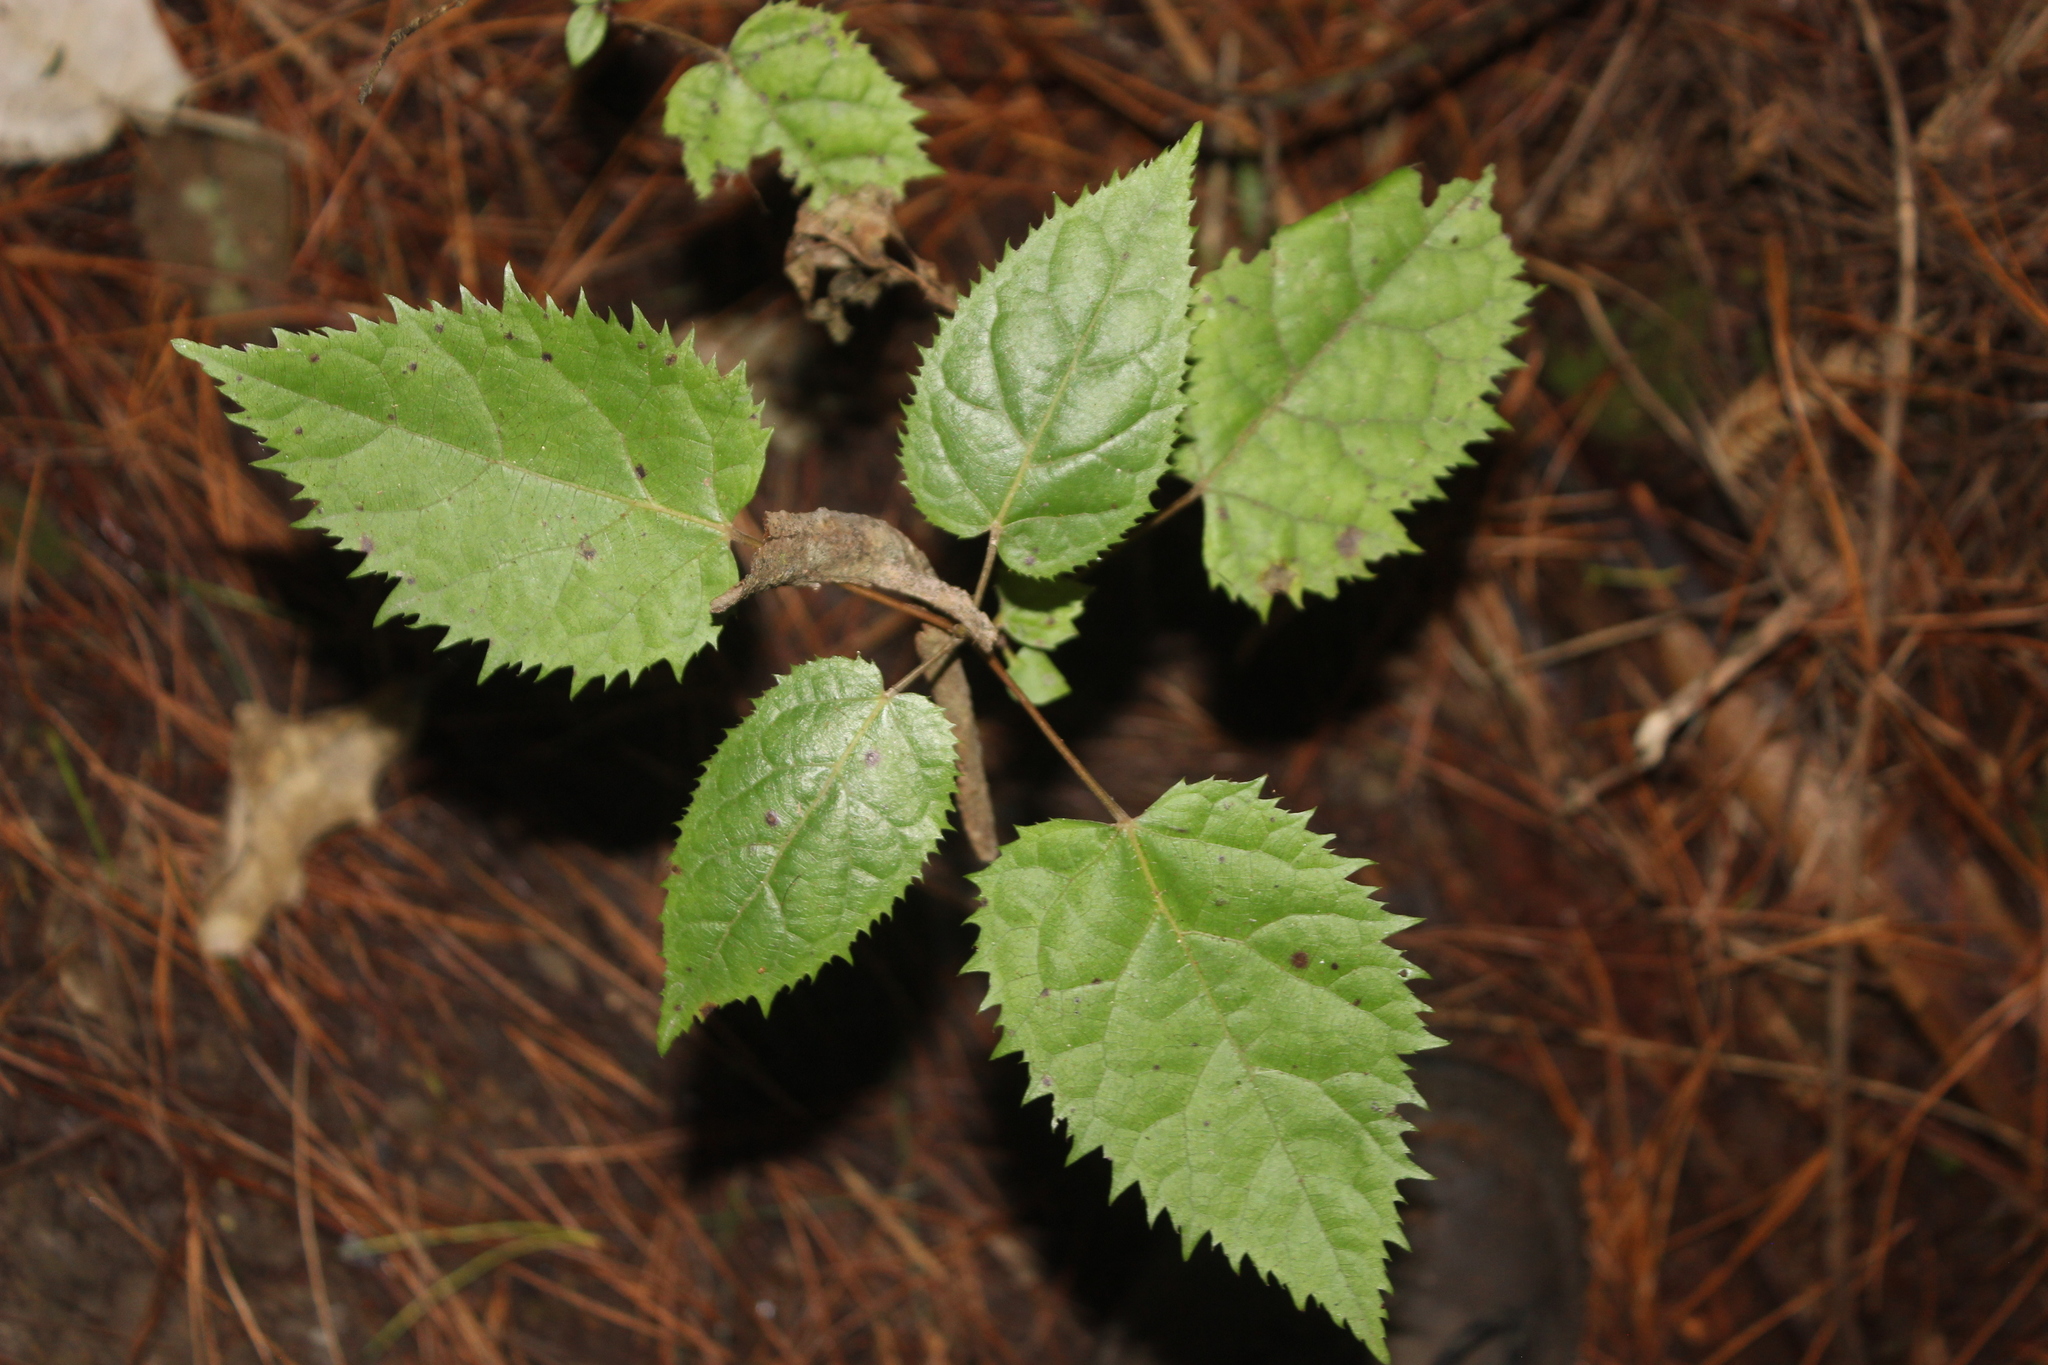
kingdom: Plantae
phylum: Tracheophyta
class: Magnoliopsida
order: Oxalidales
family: Elaeocarpaceae
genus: Aristotelia
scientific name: Aristotelia serrata
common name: New zealand wineberry
